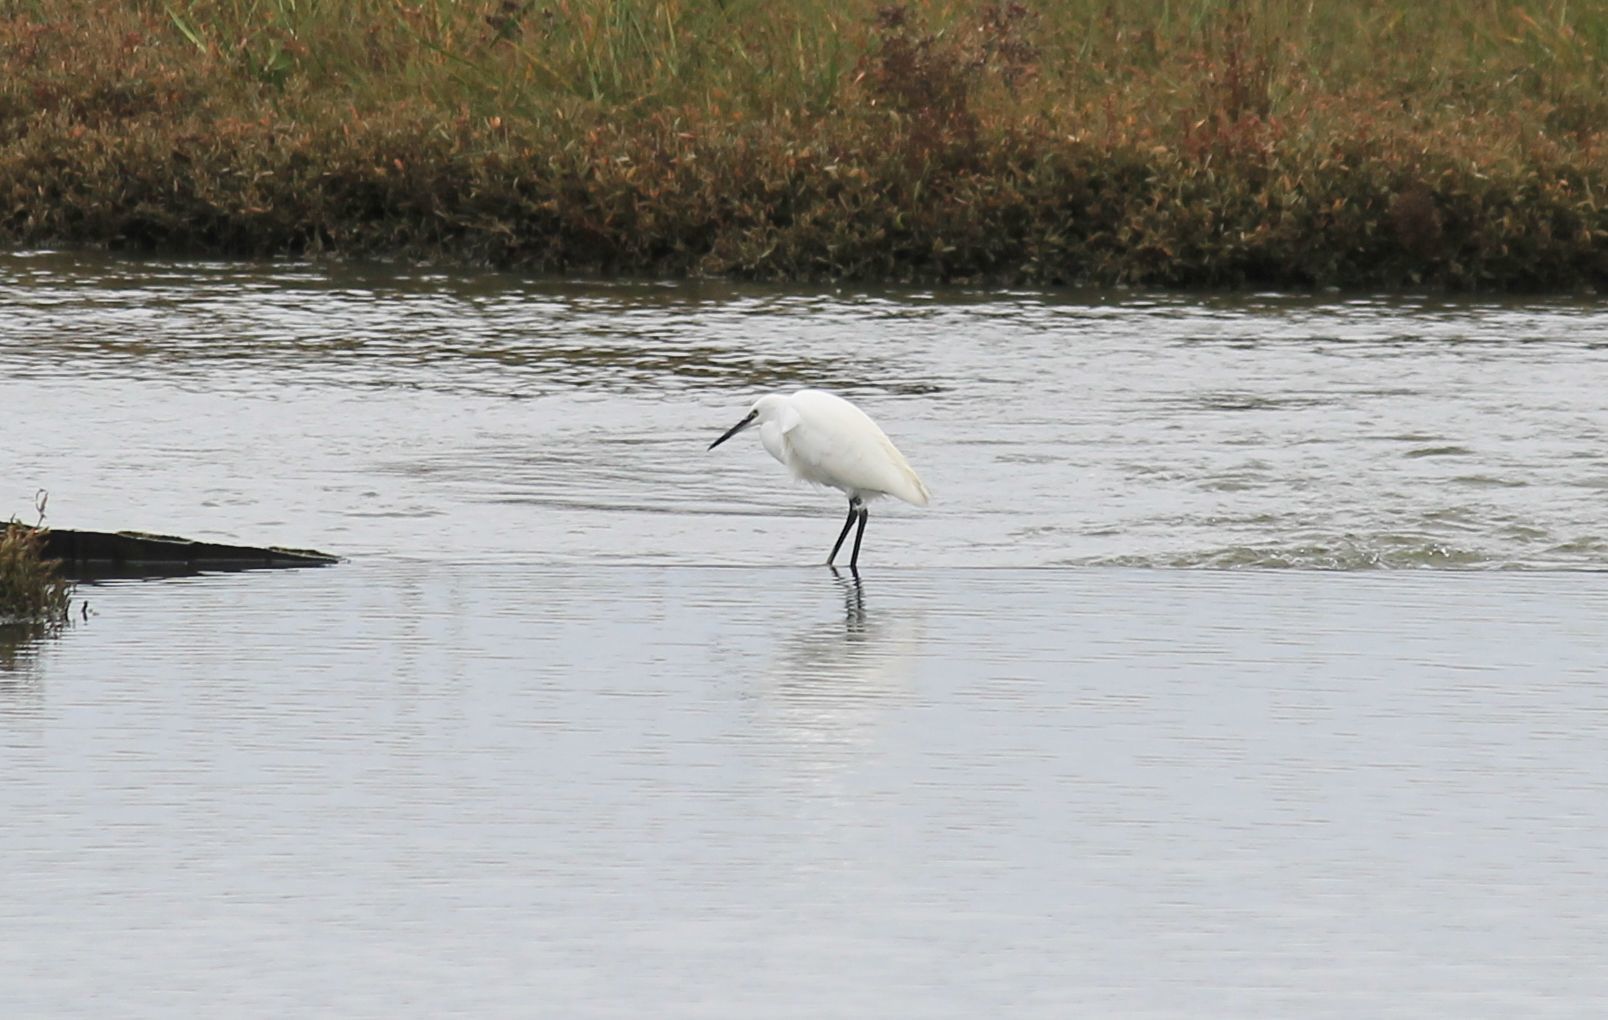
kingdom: Animalia
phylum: Chordata
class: Aves
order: Pelecaniformes
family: Ardeidae
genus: Egretta
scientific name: Egretta garzetta
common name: Little egret
